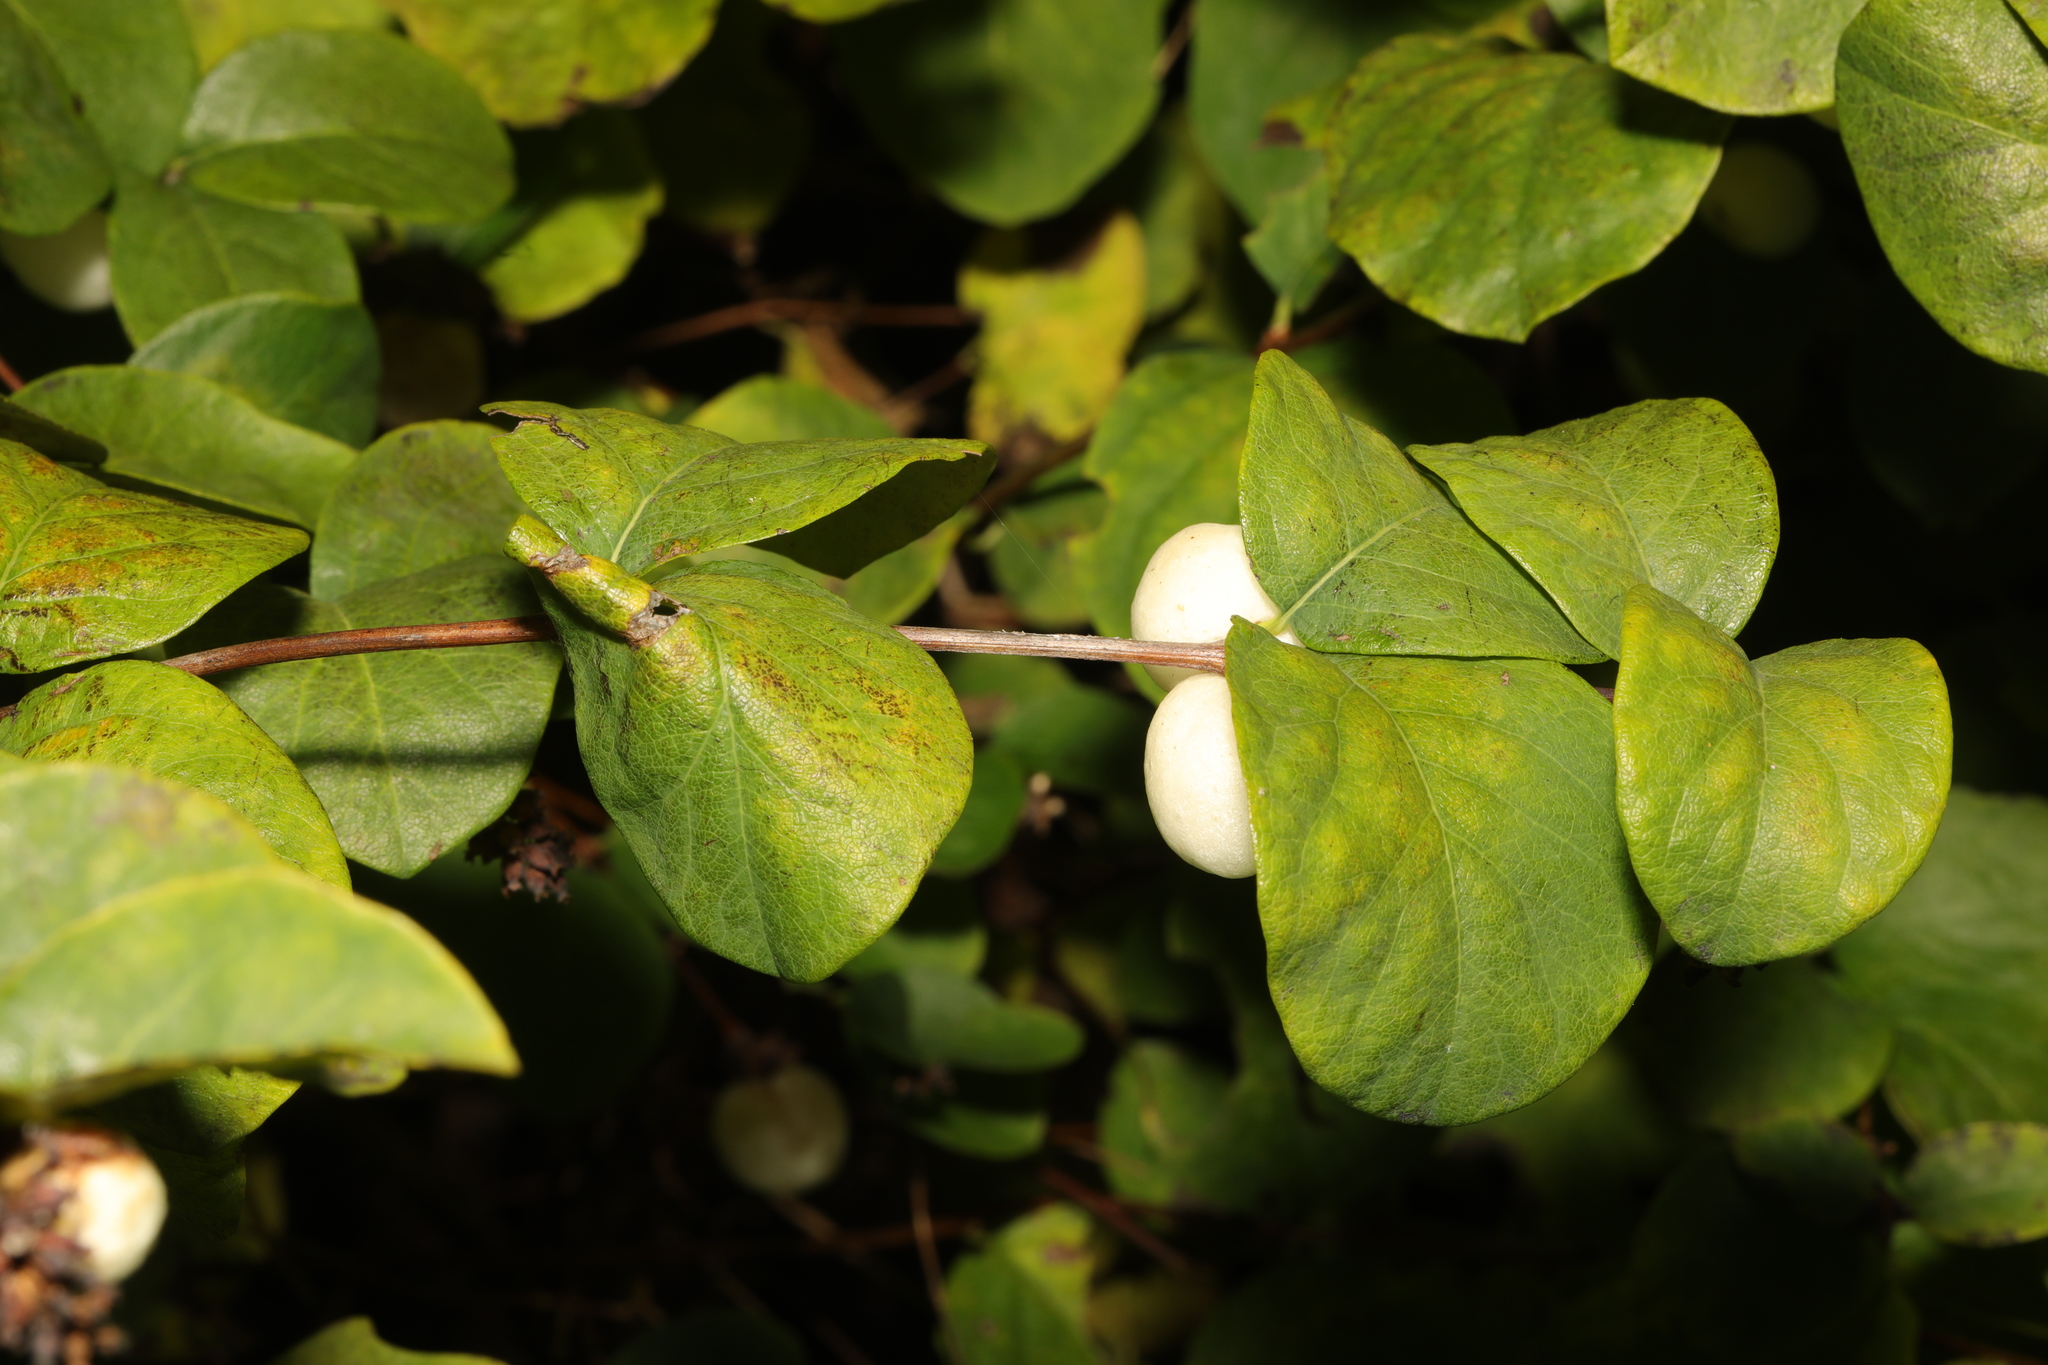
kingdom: Plantae
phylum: Tracheophyta
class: Magnoliopsida
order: Dipsacales
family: Caprifoliaceae
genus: Symphoricarpos
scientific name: Symphoricarpos albus
